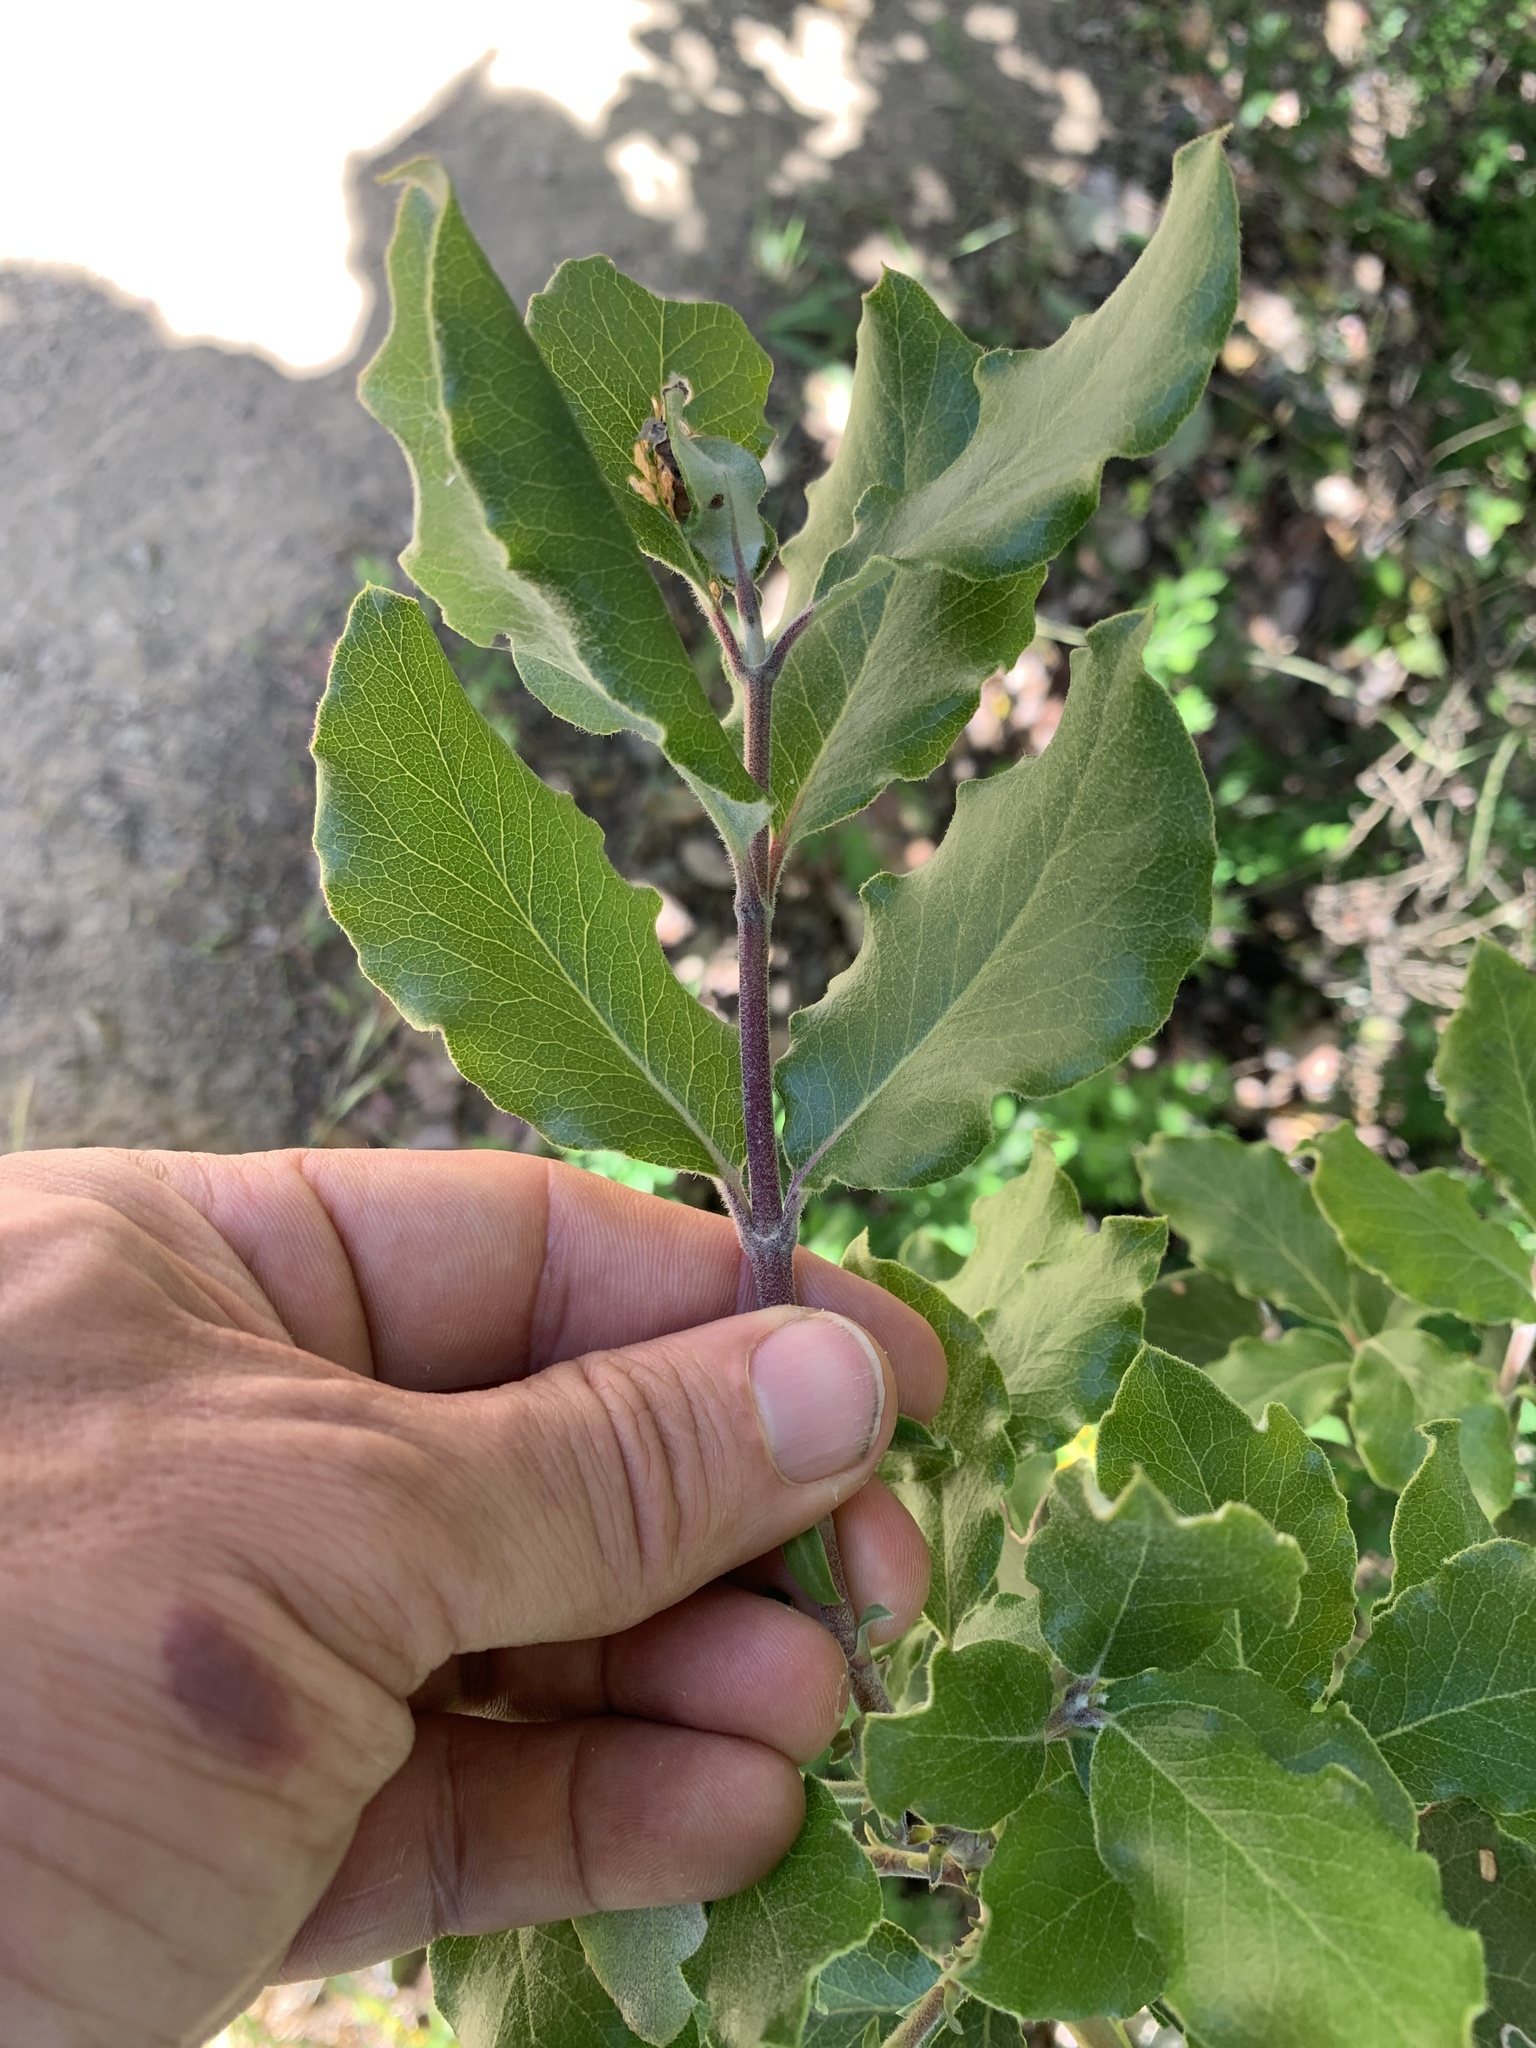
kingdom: Plantae
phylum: Tracheophyta
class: Magnoliopsida
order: Garryales
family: Garryaceae
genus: Garrya
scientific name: Garrya elliptica
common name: Silk-tassel
